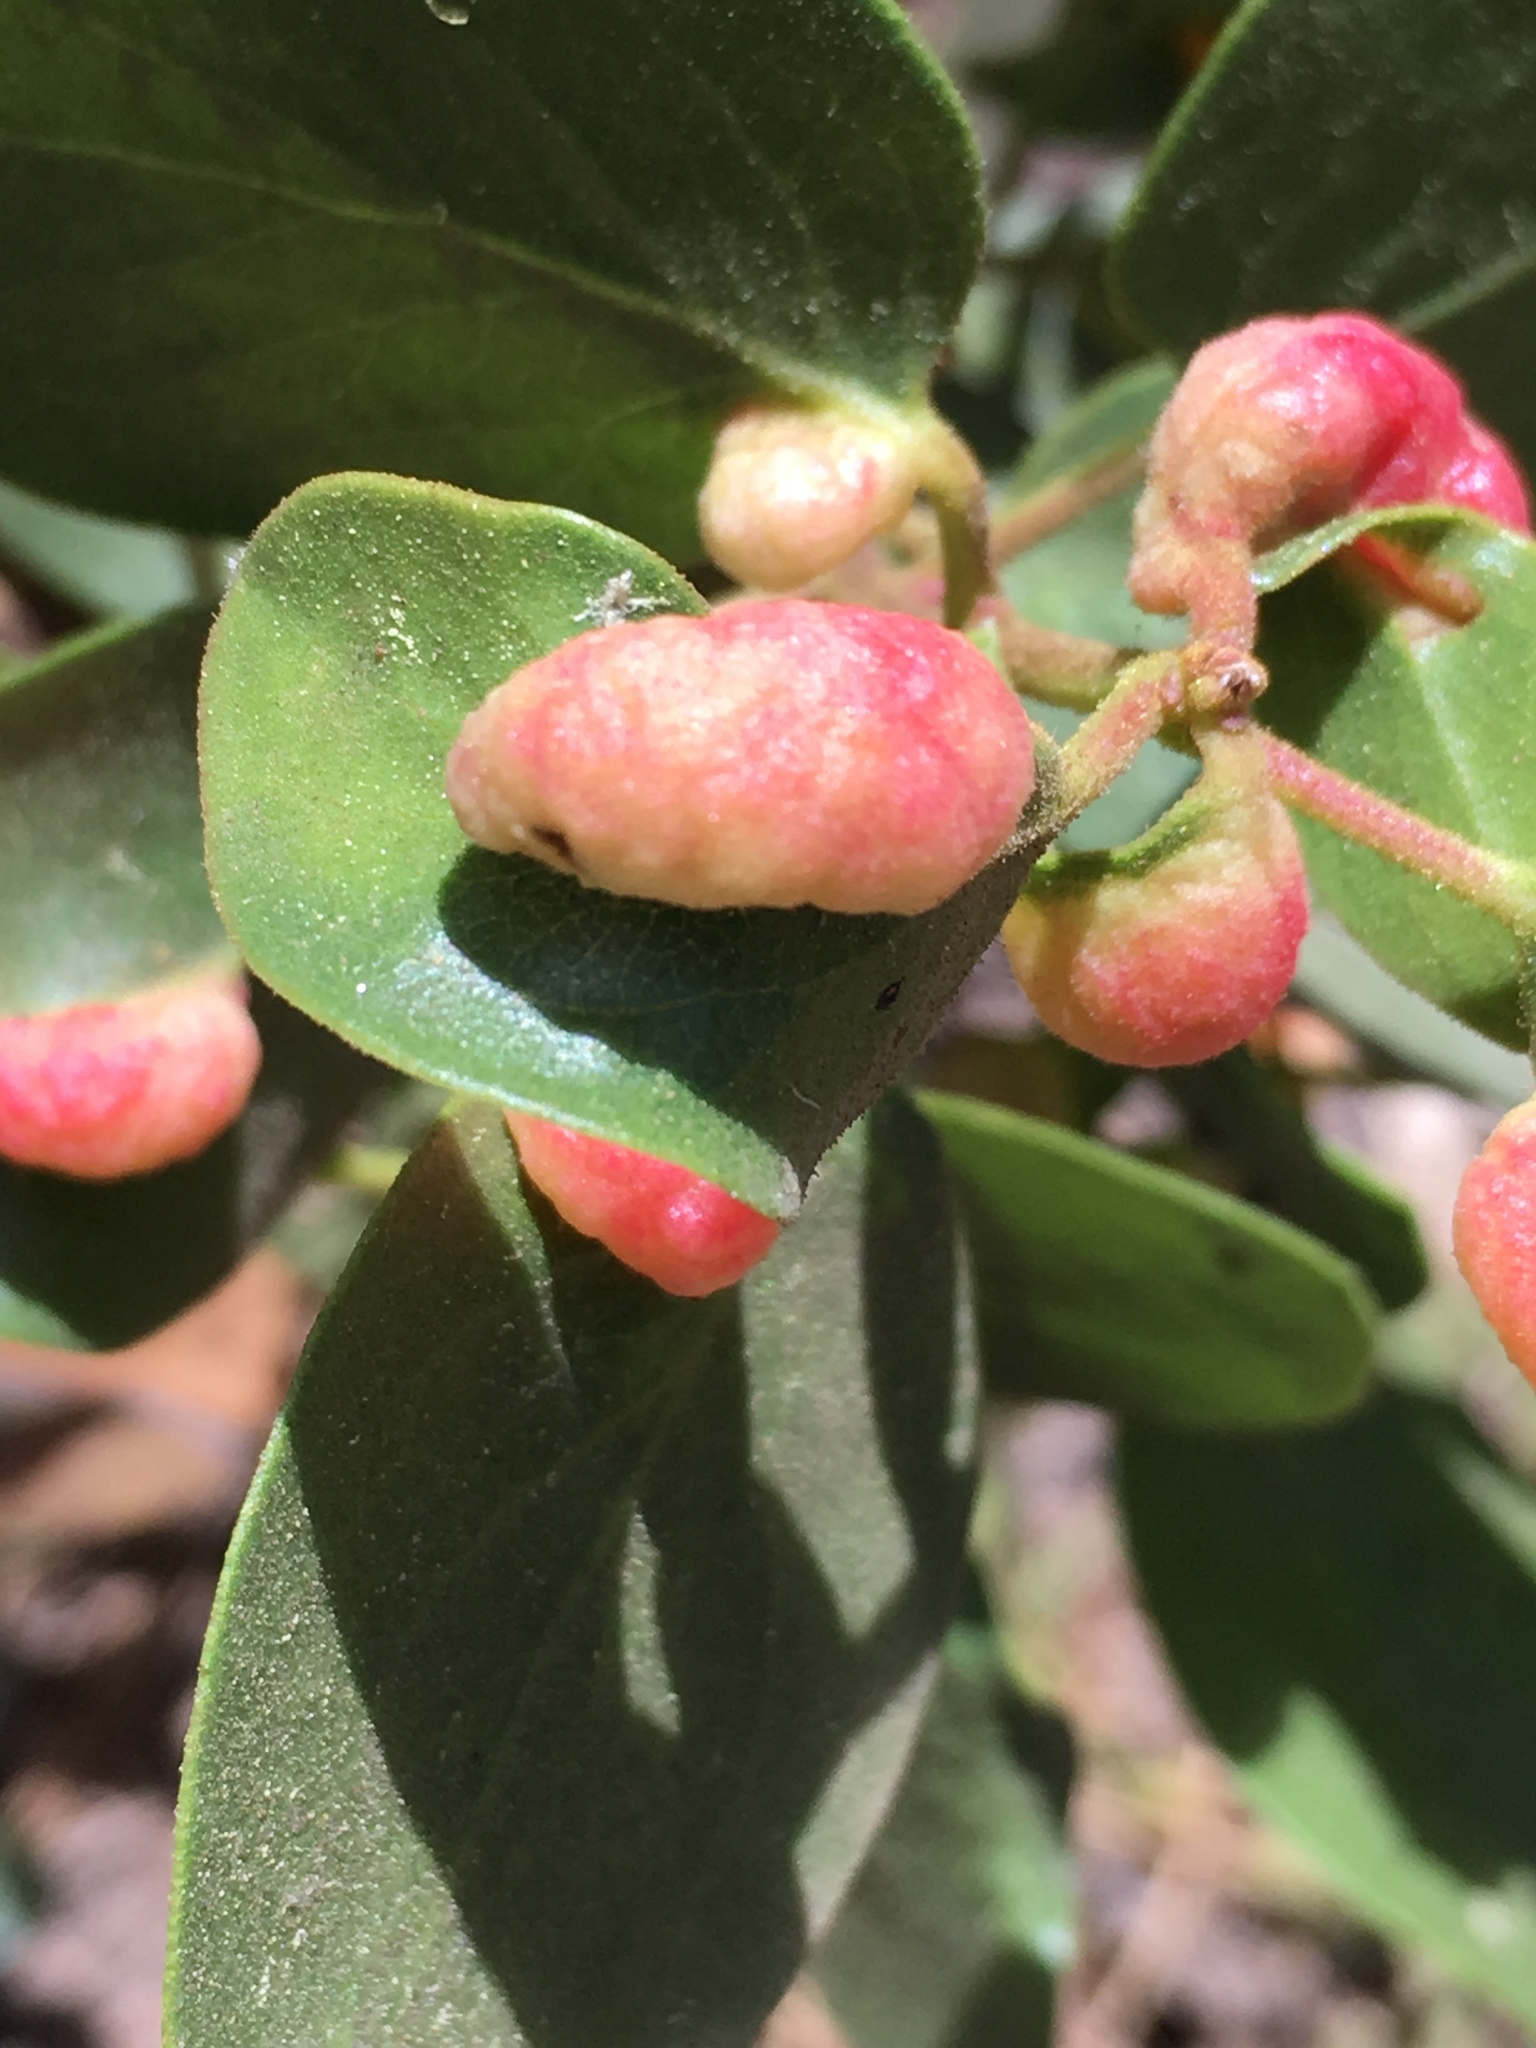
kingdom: Animalia
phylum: Arthropoda
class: Insecta
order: Hemiptera
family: Aphididae
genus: Tamalia
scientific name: Tamalia coweni
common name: Manzanita leafgall aphid
